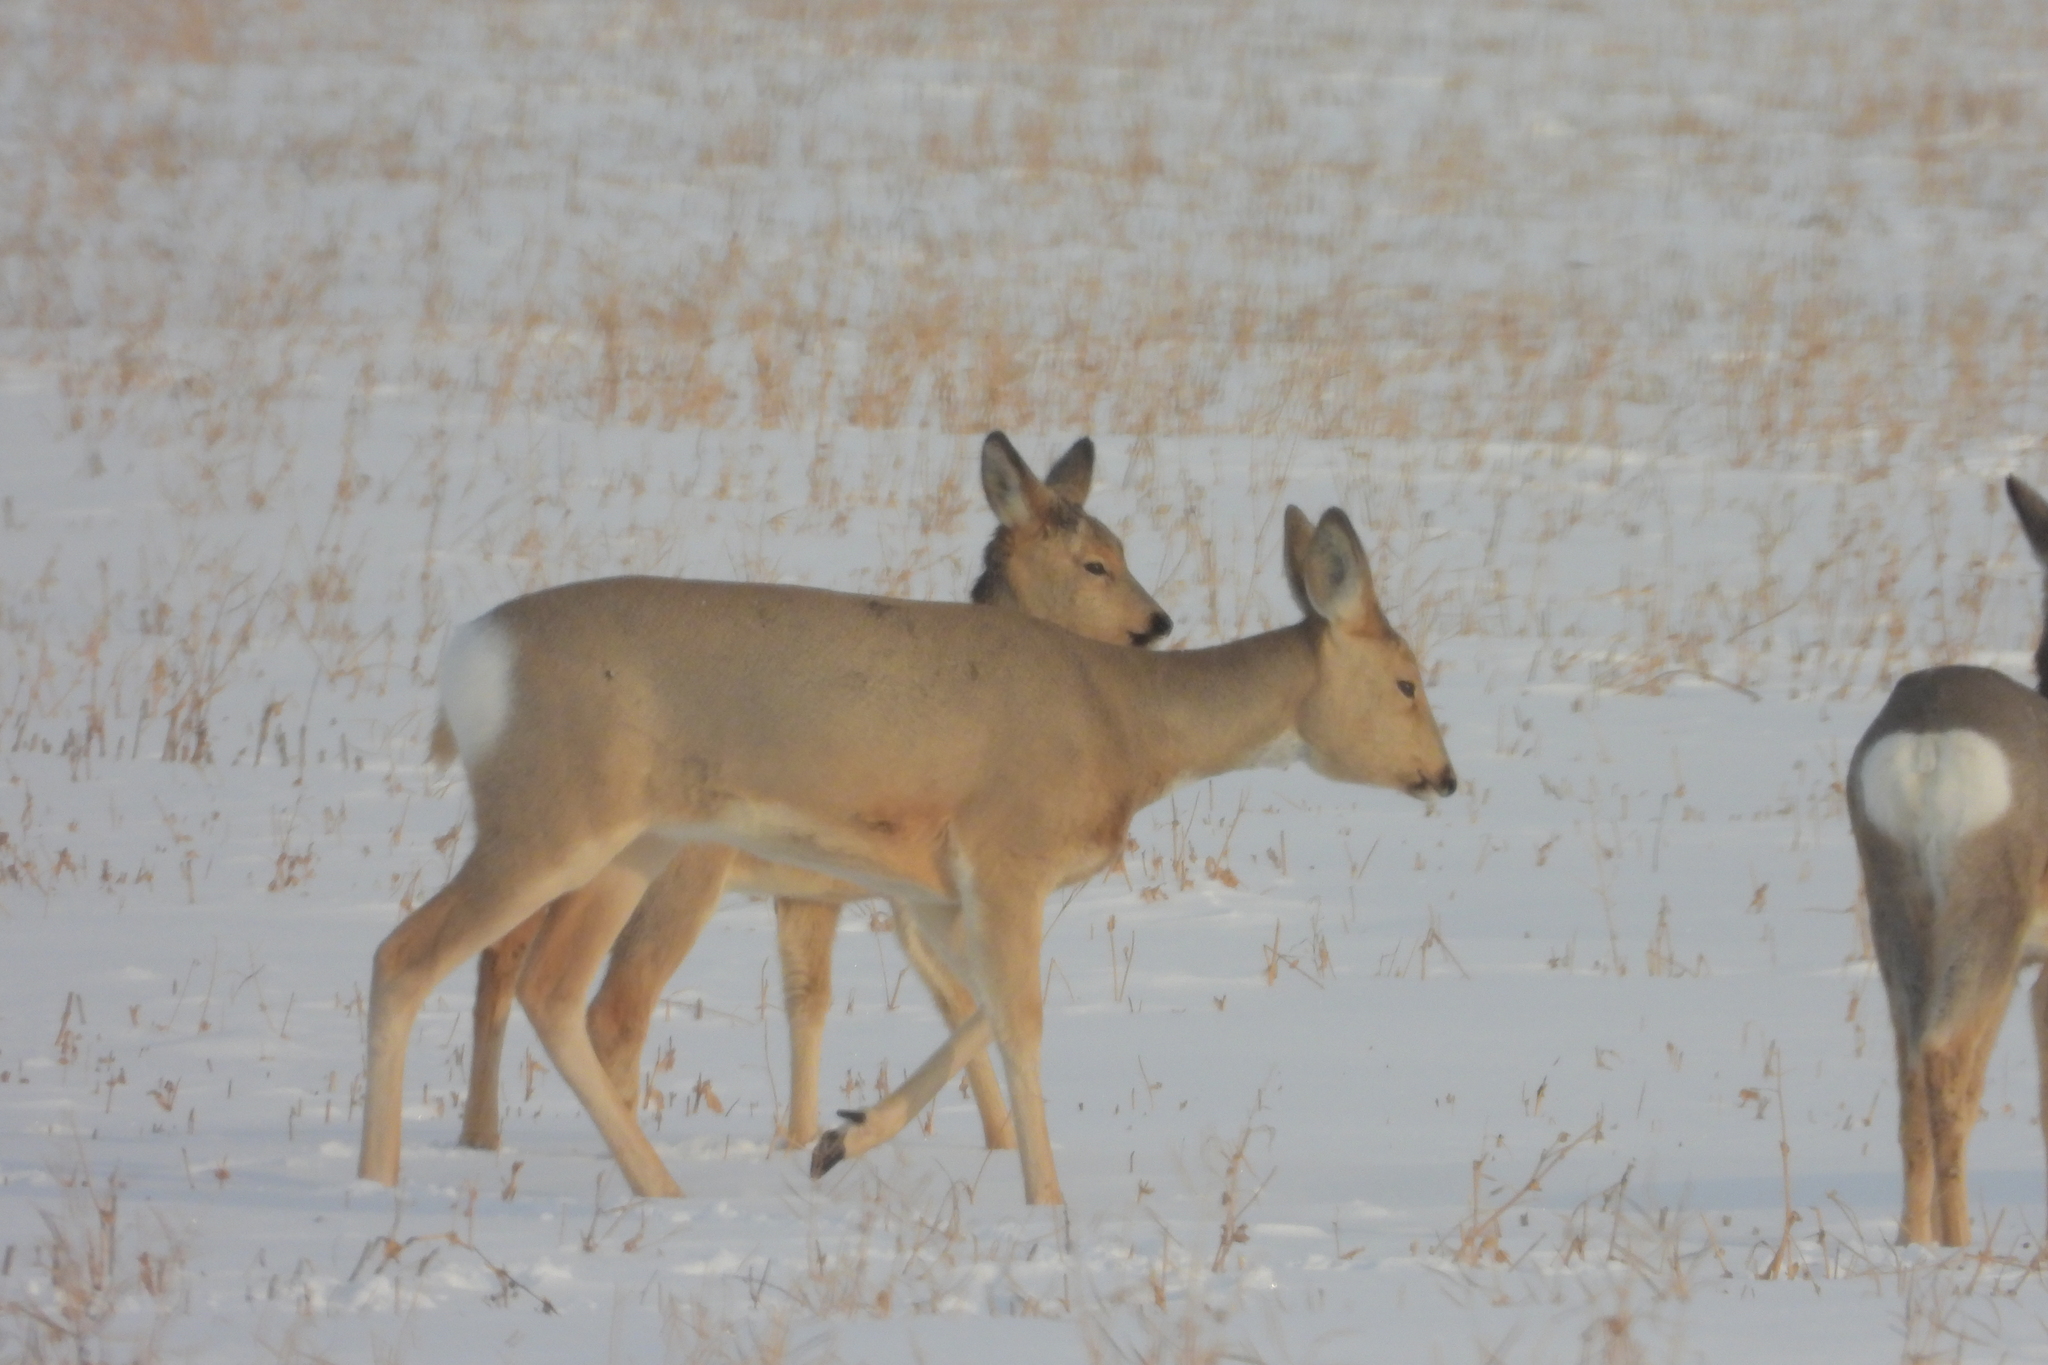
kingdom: Animalia
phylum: Chordata
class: Mammalia
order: Artiodactyla
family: Cervidae
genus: Capreolus
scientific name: Capreolus pygargus
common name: Siberian roe
